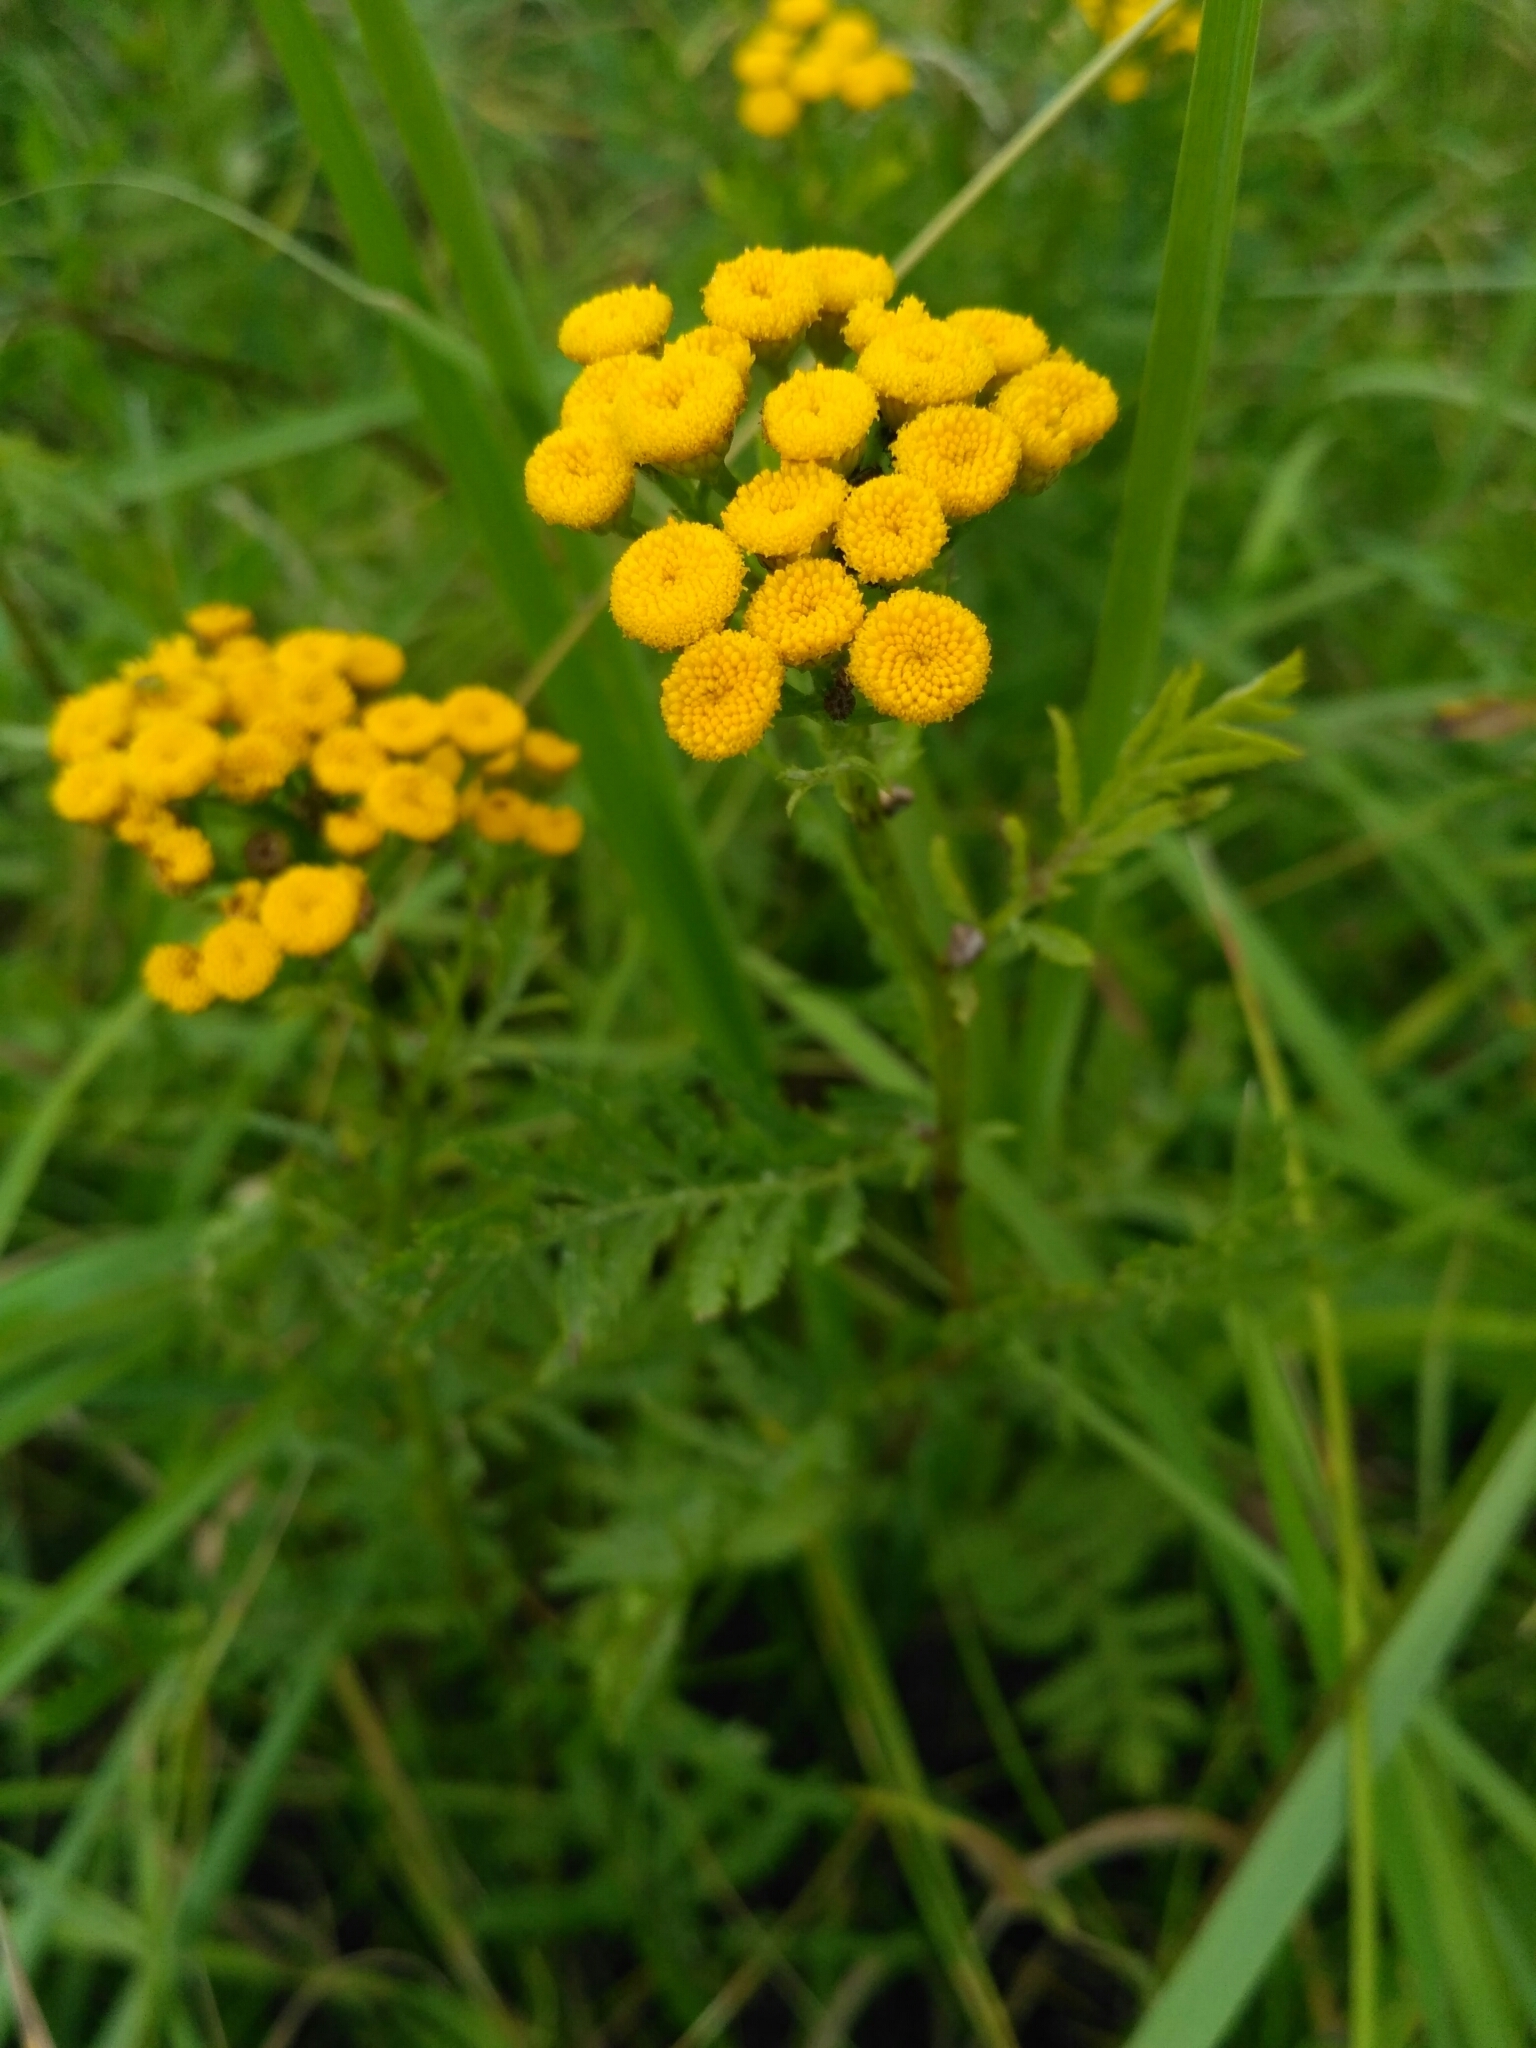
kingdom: Plantae
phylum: Tracheophyta
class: Magnoliopsida
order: Asterales
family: Asteraceae
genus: Tanacetum
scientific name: Tanacetum vulgare
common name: Common tansy
